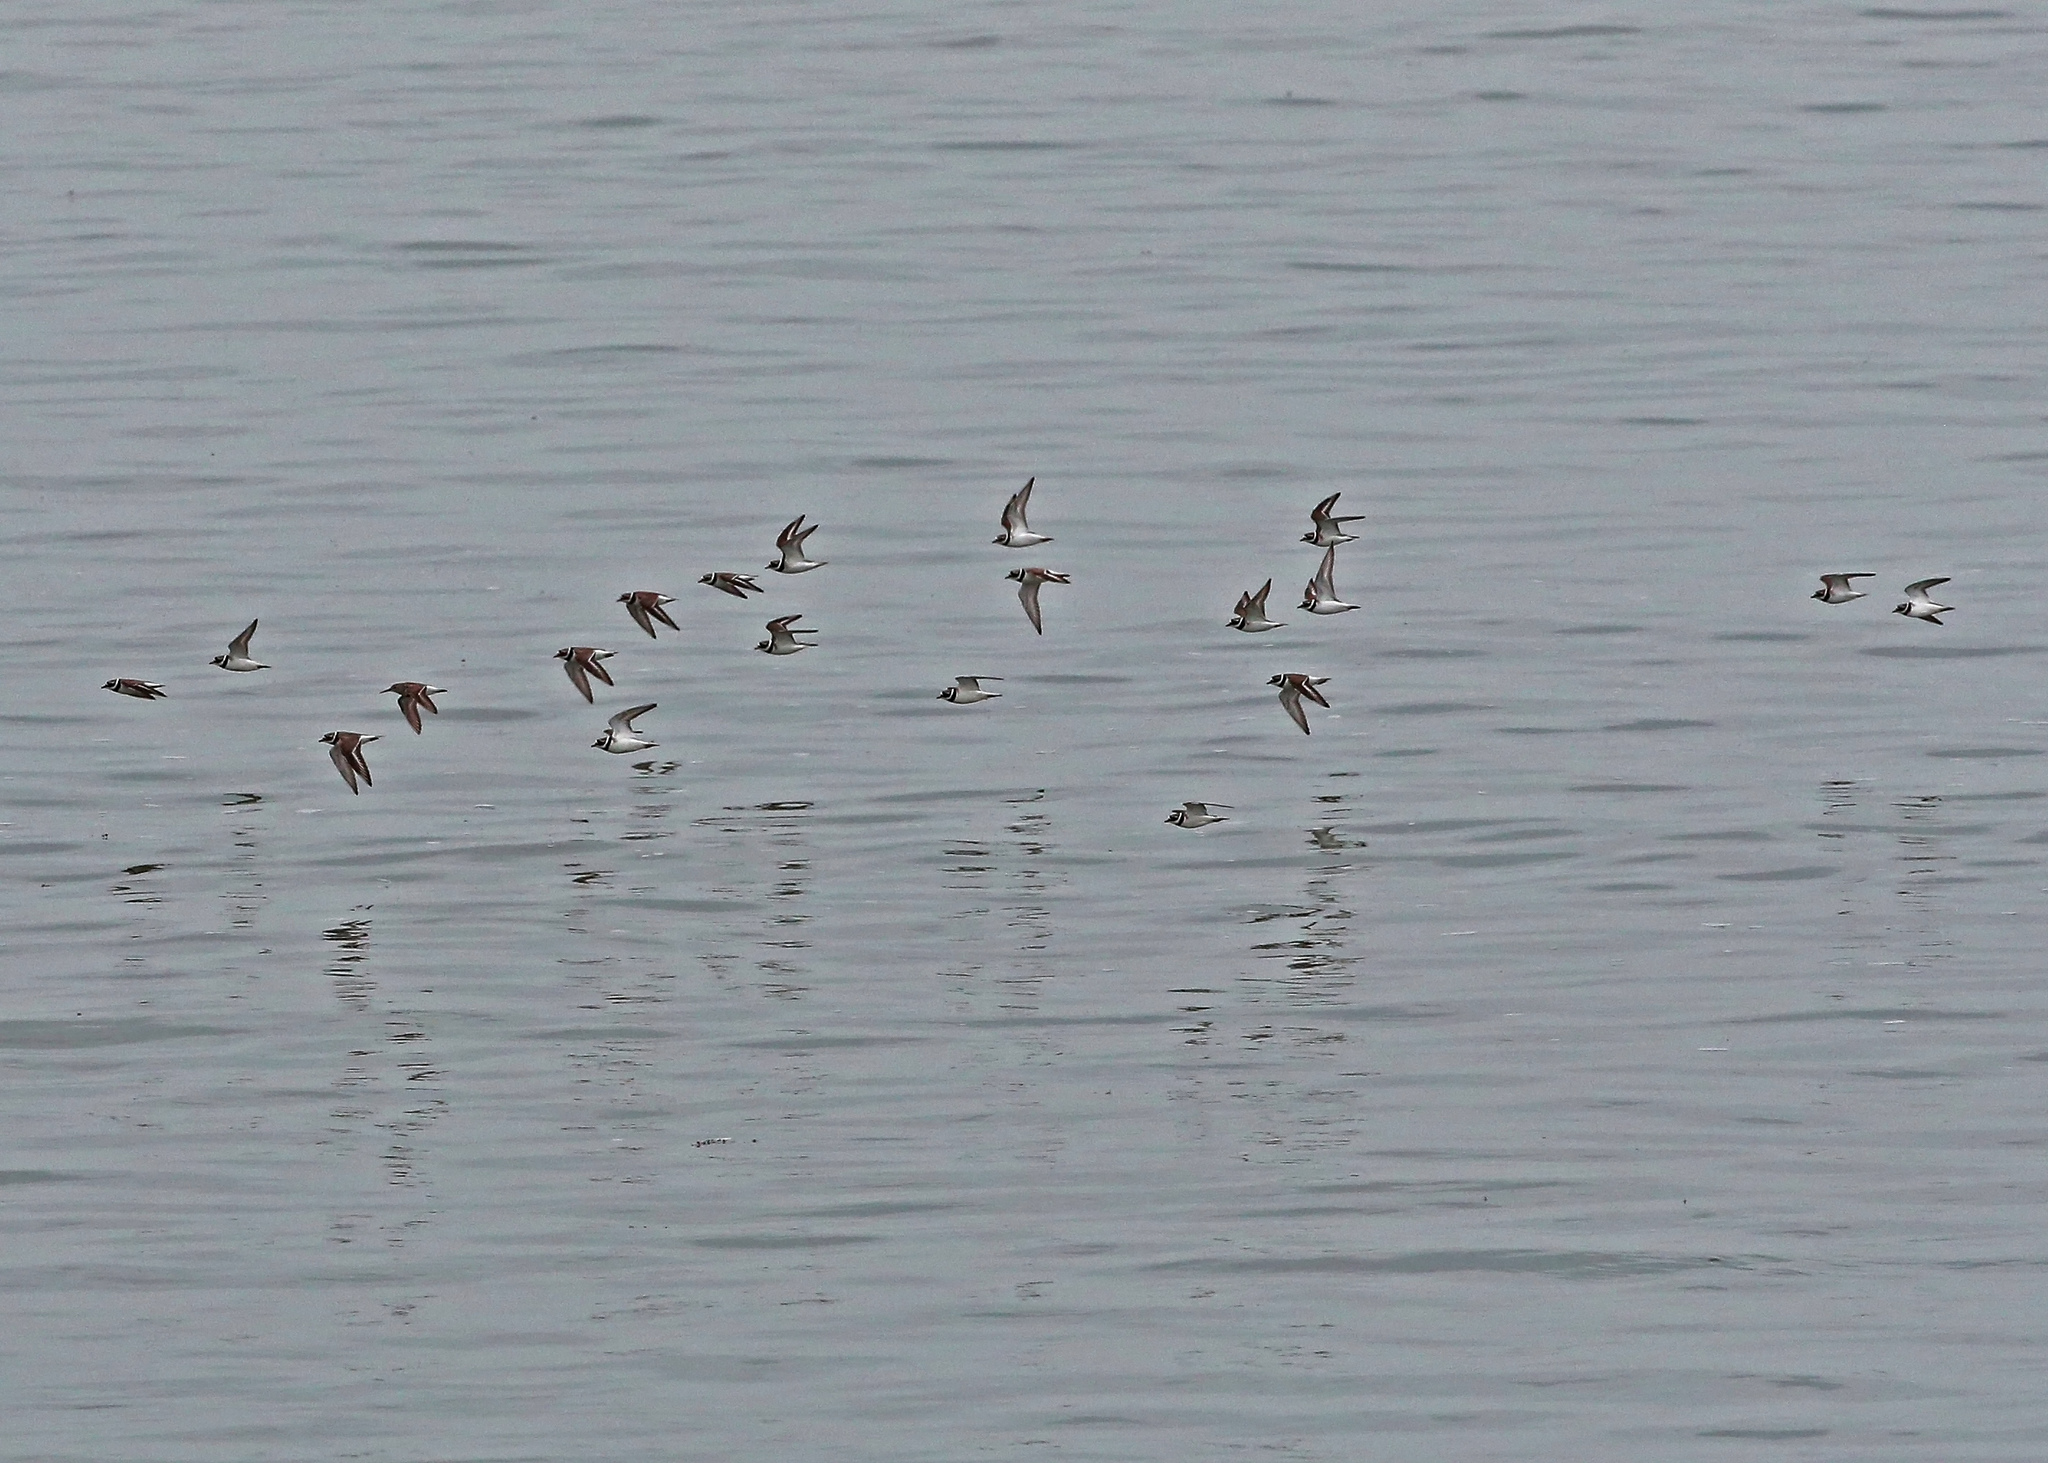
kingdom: Animalia
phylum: Chordata
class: Aves
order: Charadriiformes
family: Charadriidae
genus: Charadrius
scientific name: Charadrius hiaticula
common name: Common ringed plover
